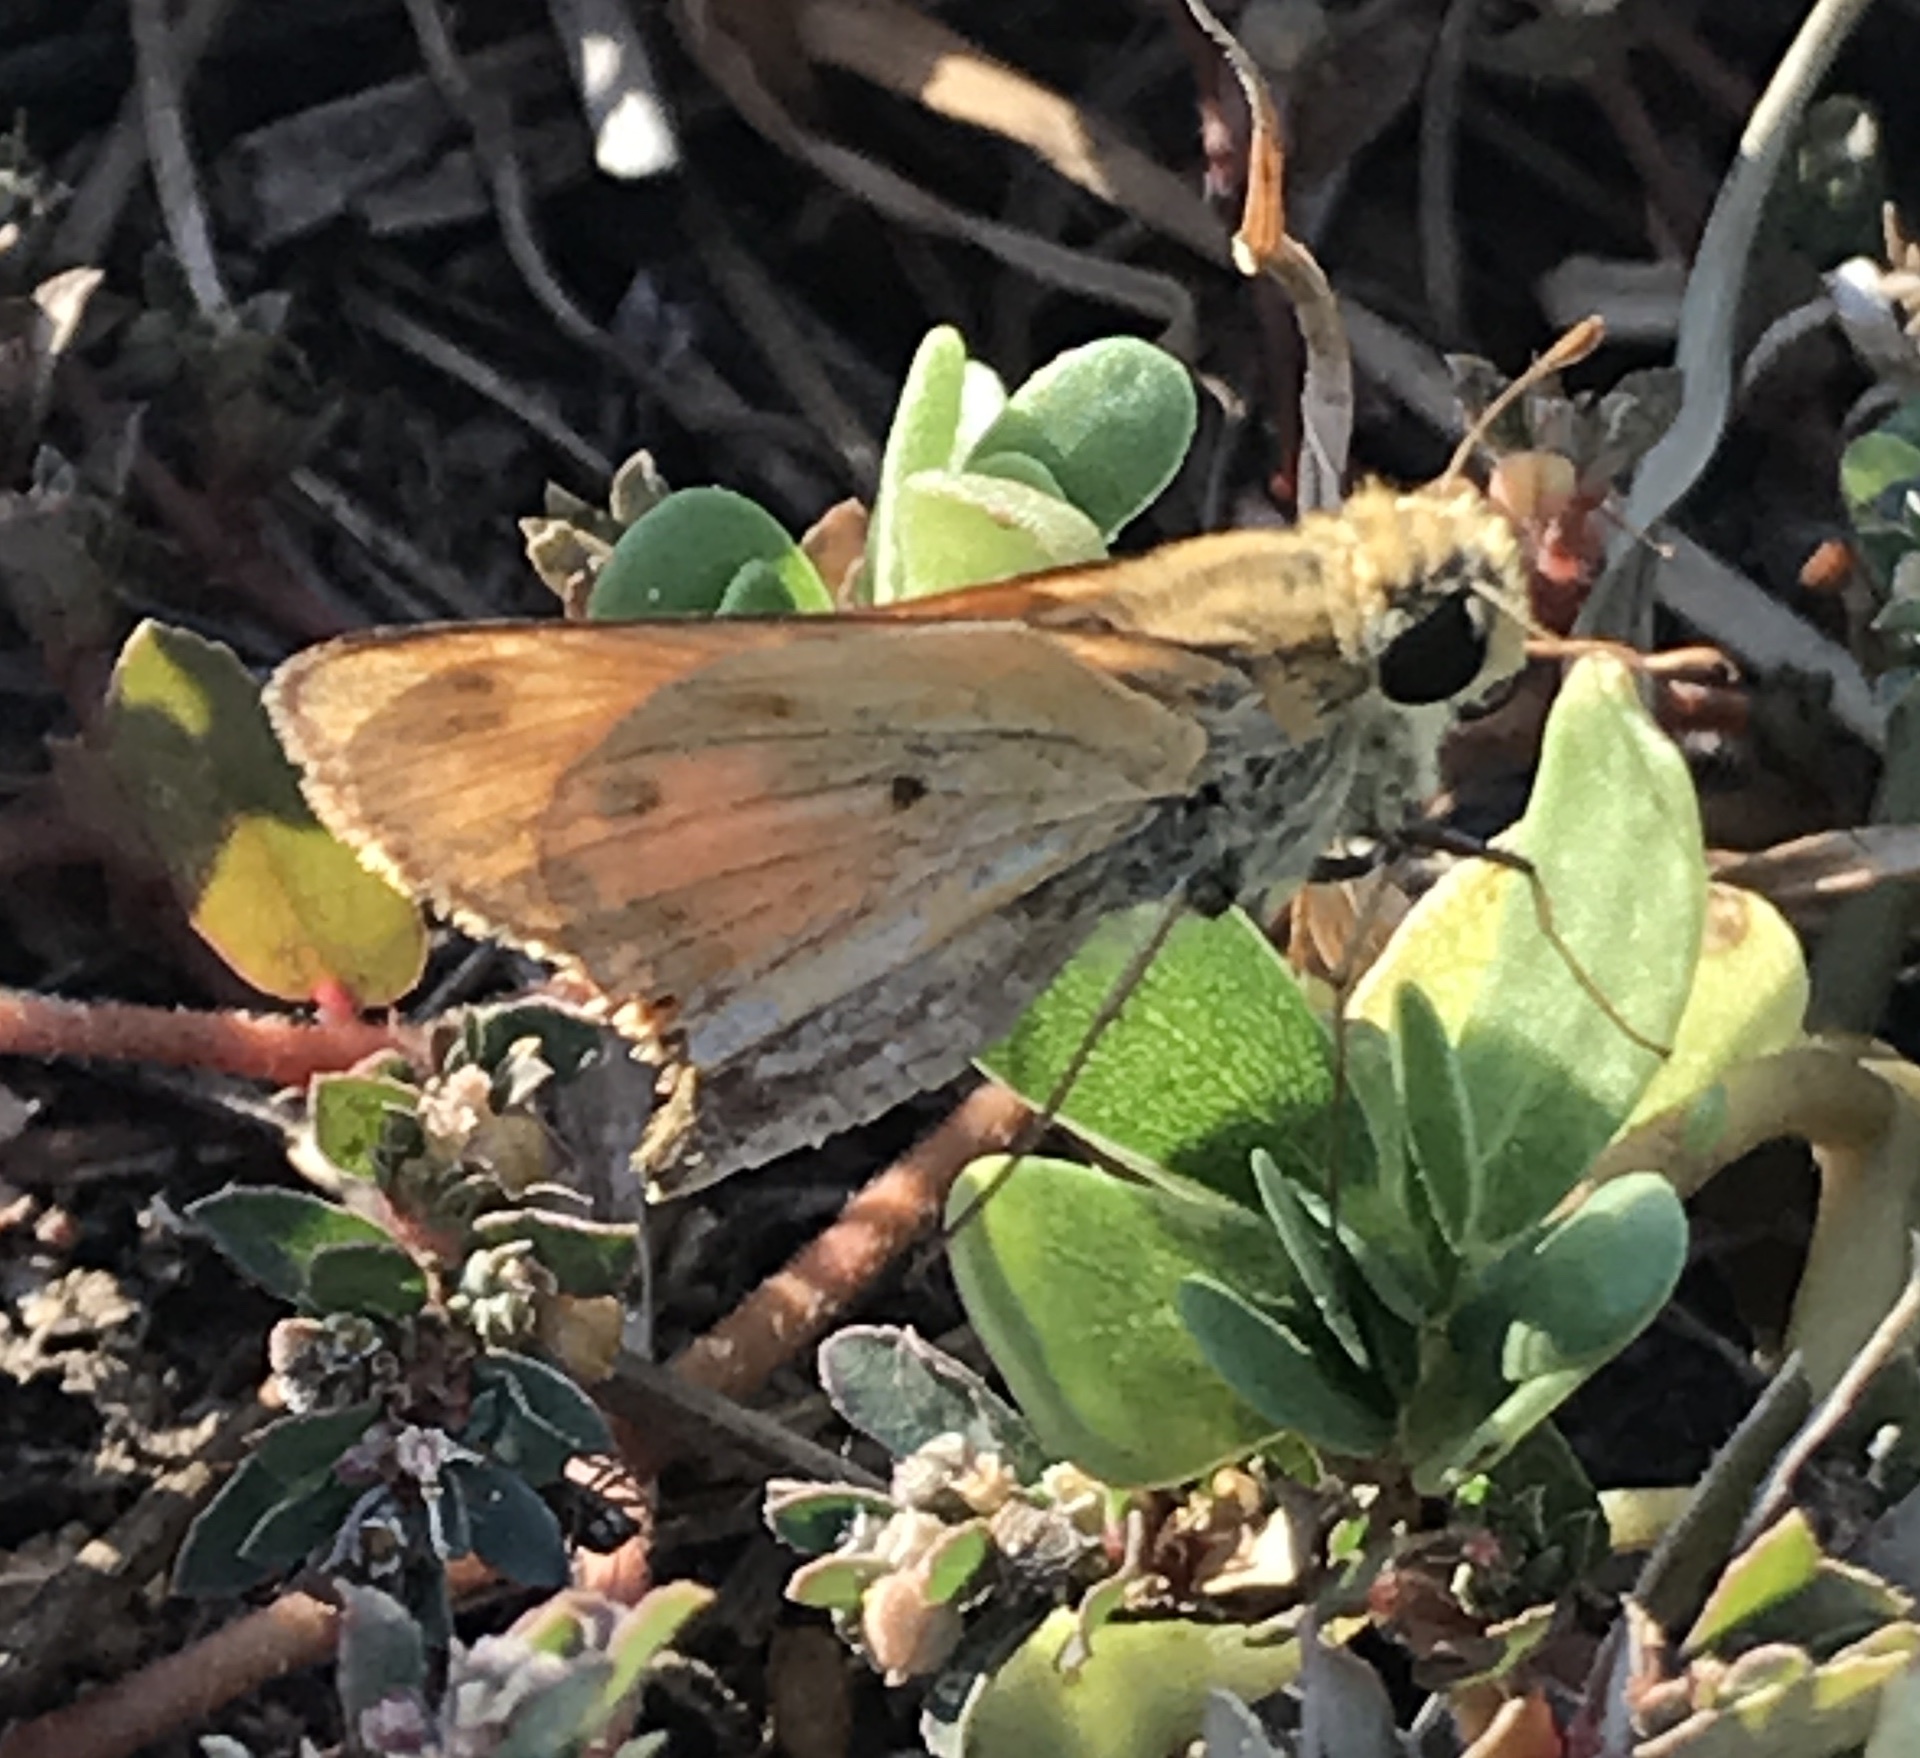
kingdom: Animalia
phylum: Arthropoda
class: Insecta
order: Lepidoptera
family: Hesperiidae
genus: Hylephila
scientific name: Hylephila phyleus
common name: Fiery skipper
